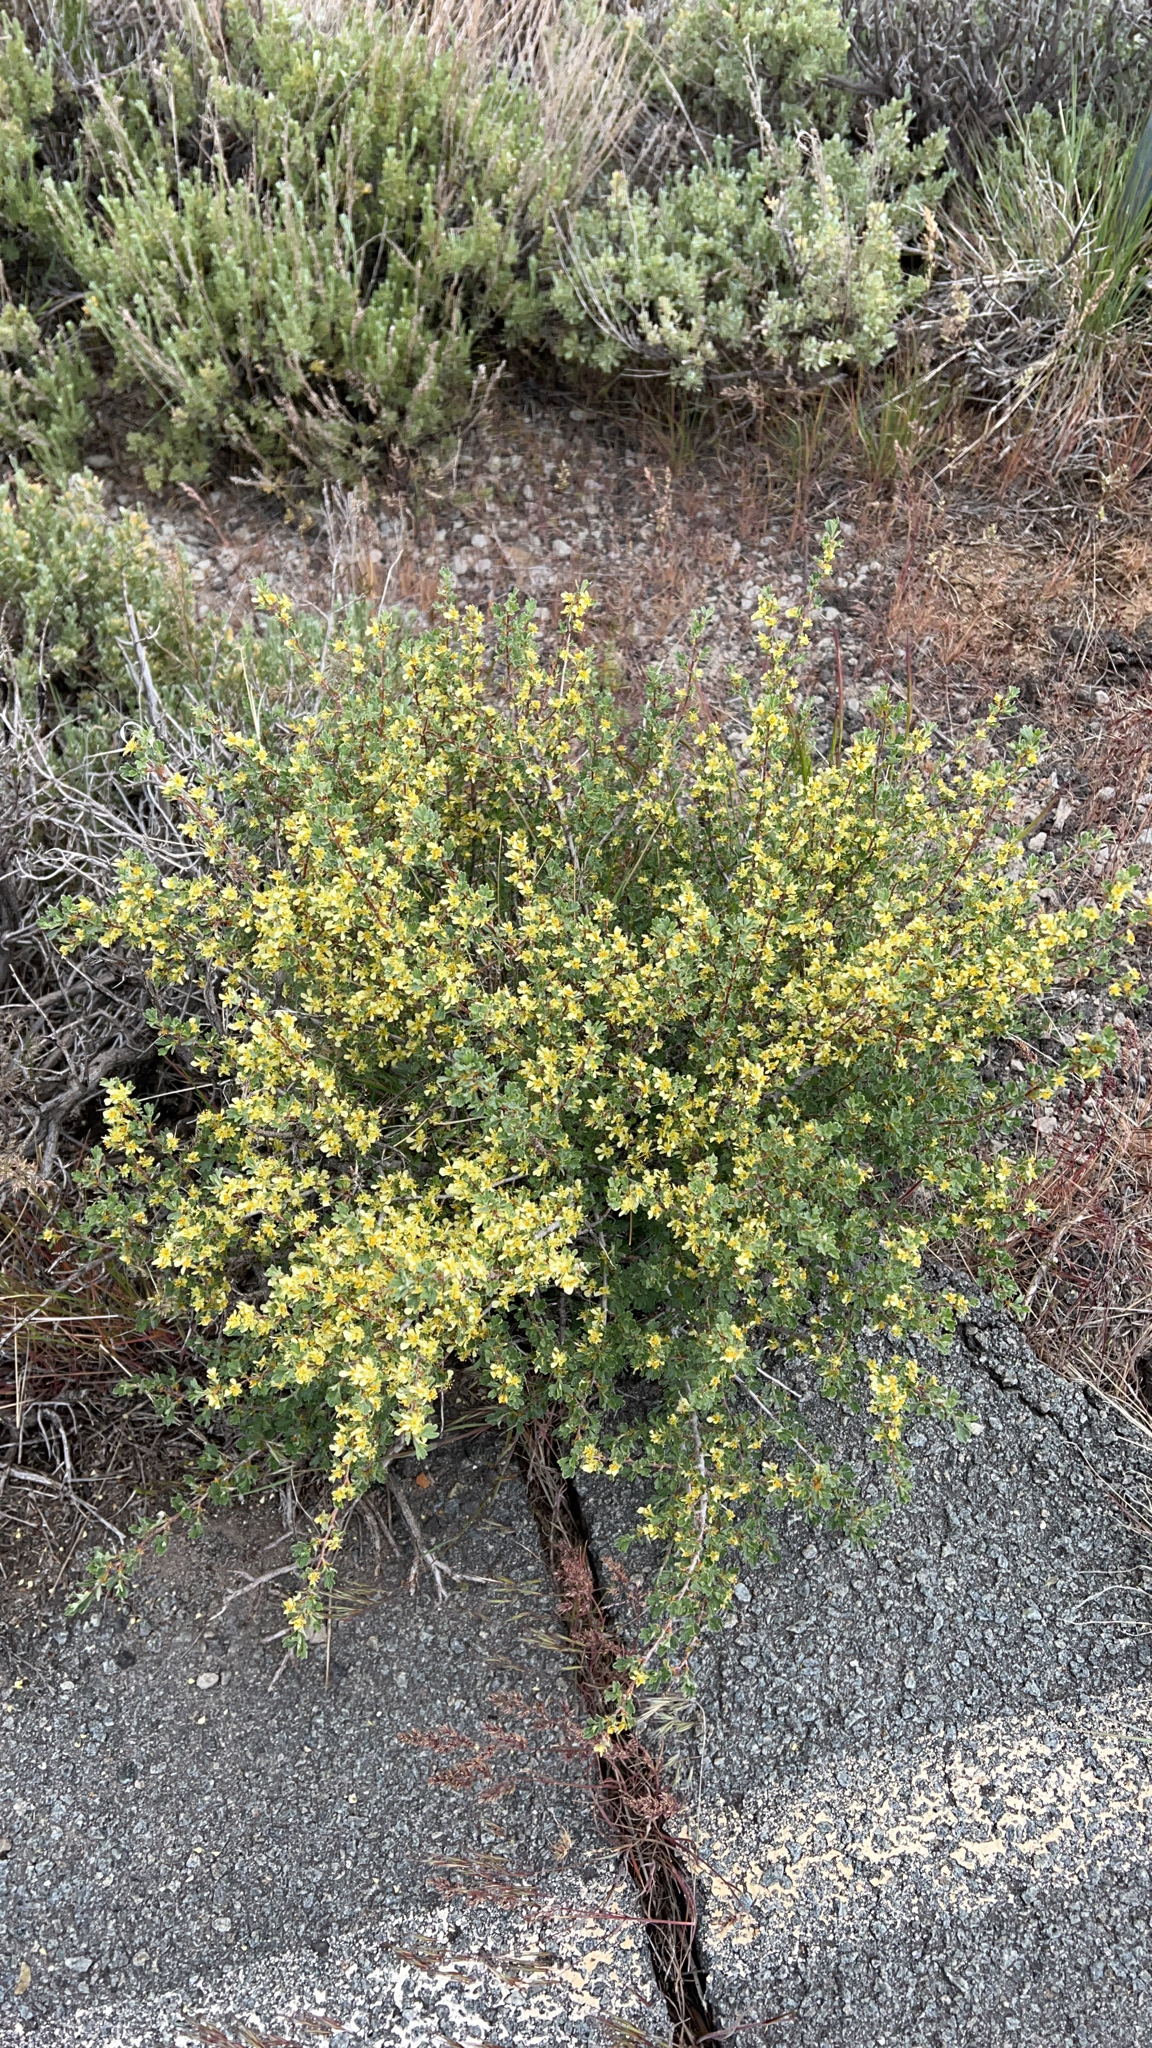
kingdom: Plantae
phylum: Tracheophyta
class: Magnoliopsida
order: Rosales
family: Rosaceae
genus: Purshia
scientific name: Purshia tridentata
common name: Antelope bitterbrush
